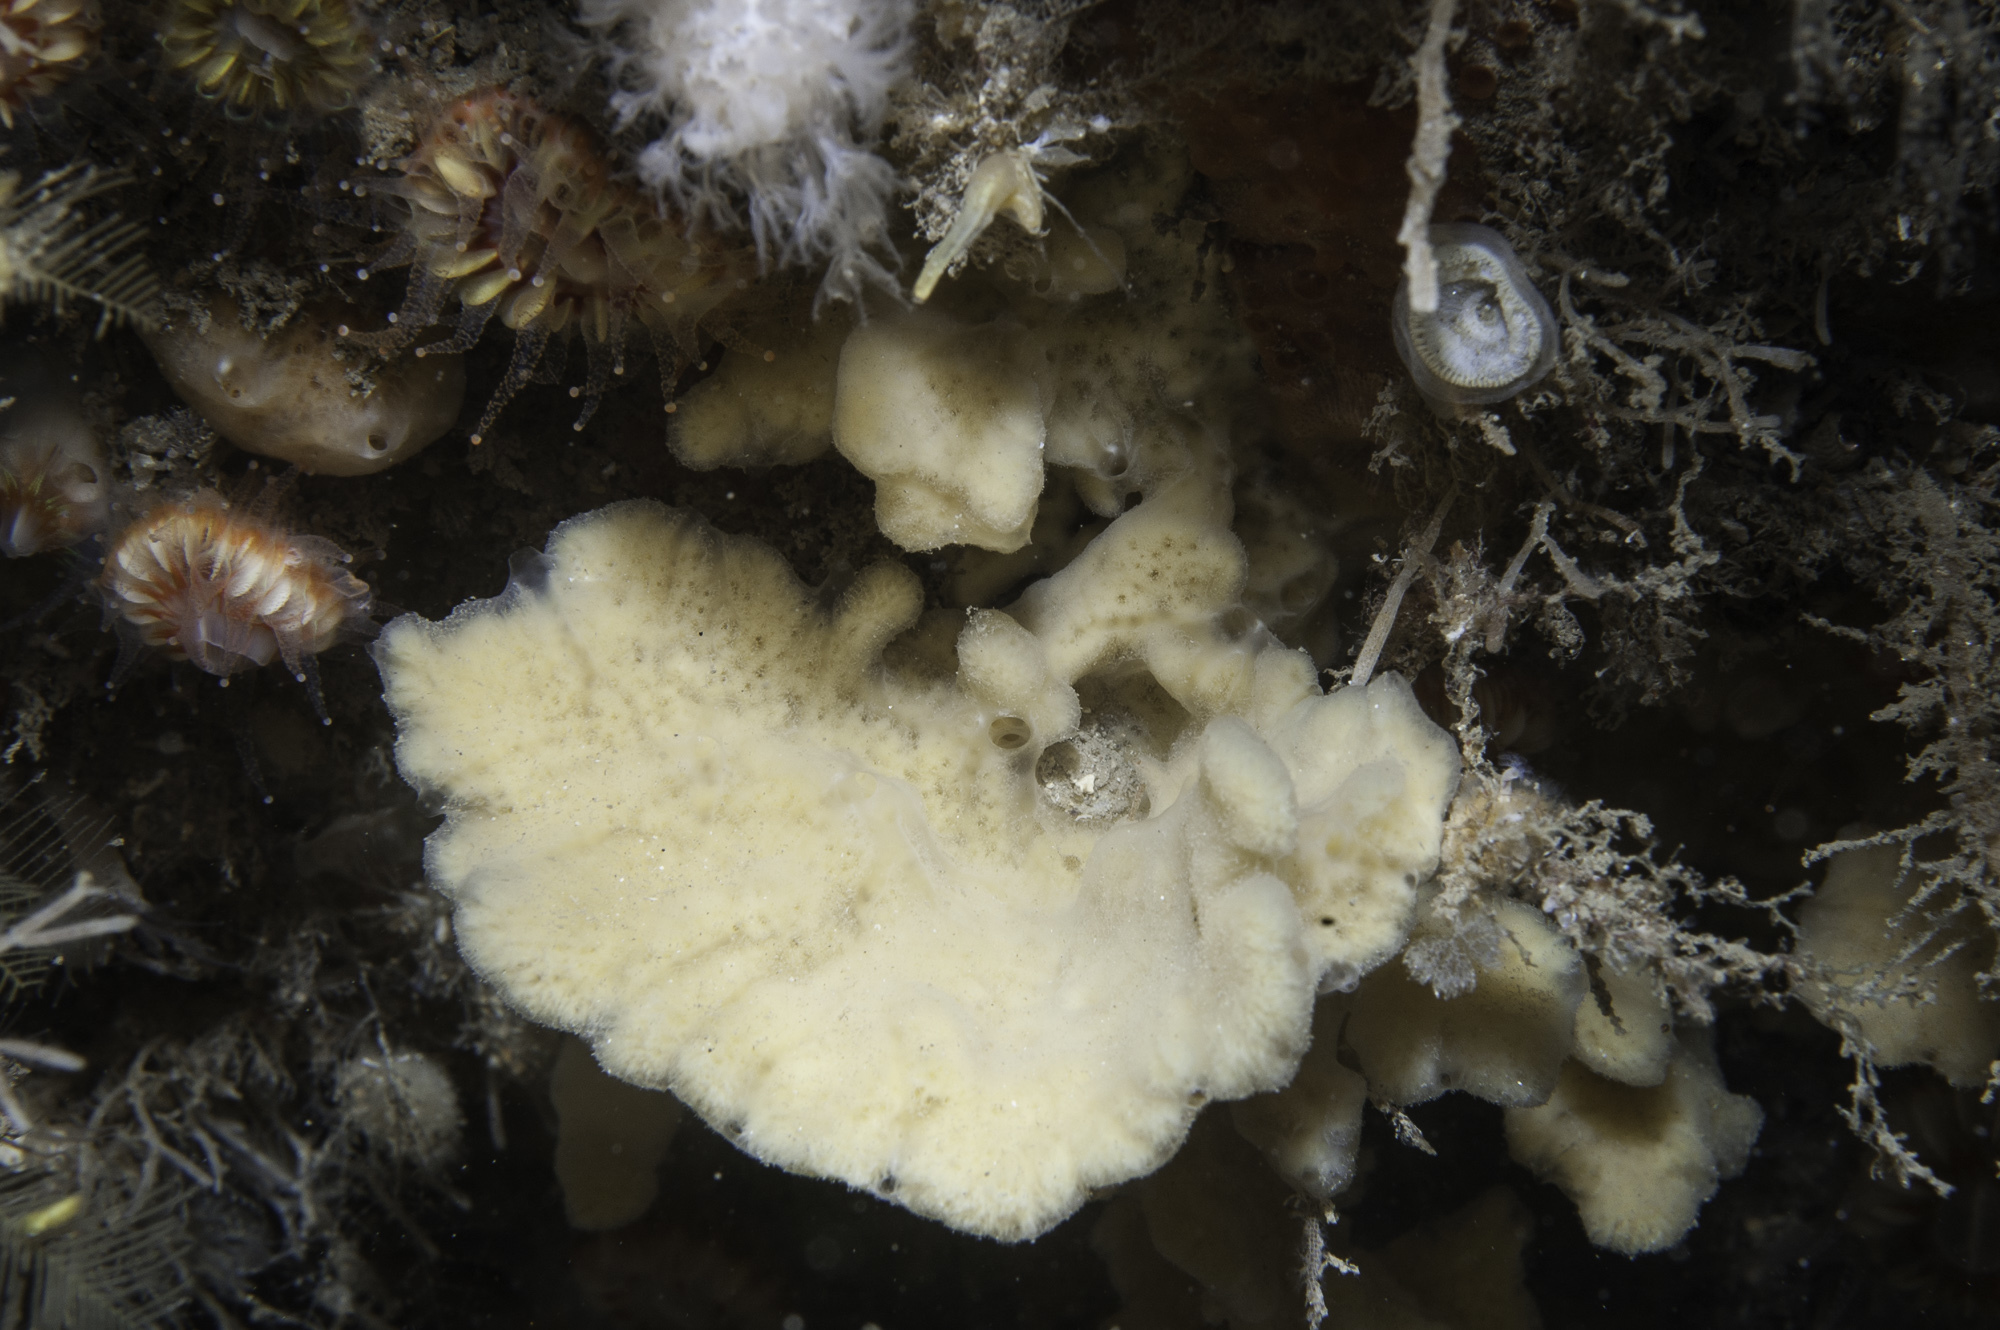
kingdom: Animalia
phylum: Porifera
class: Demospongiae
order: Poecilosclerida
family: Microcionidae
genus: Clathria
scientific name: Clathria barleei
